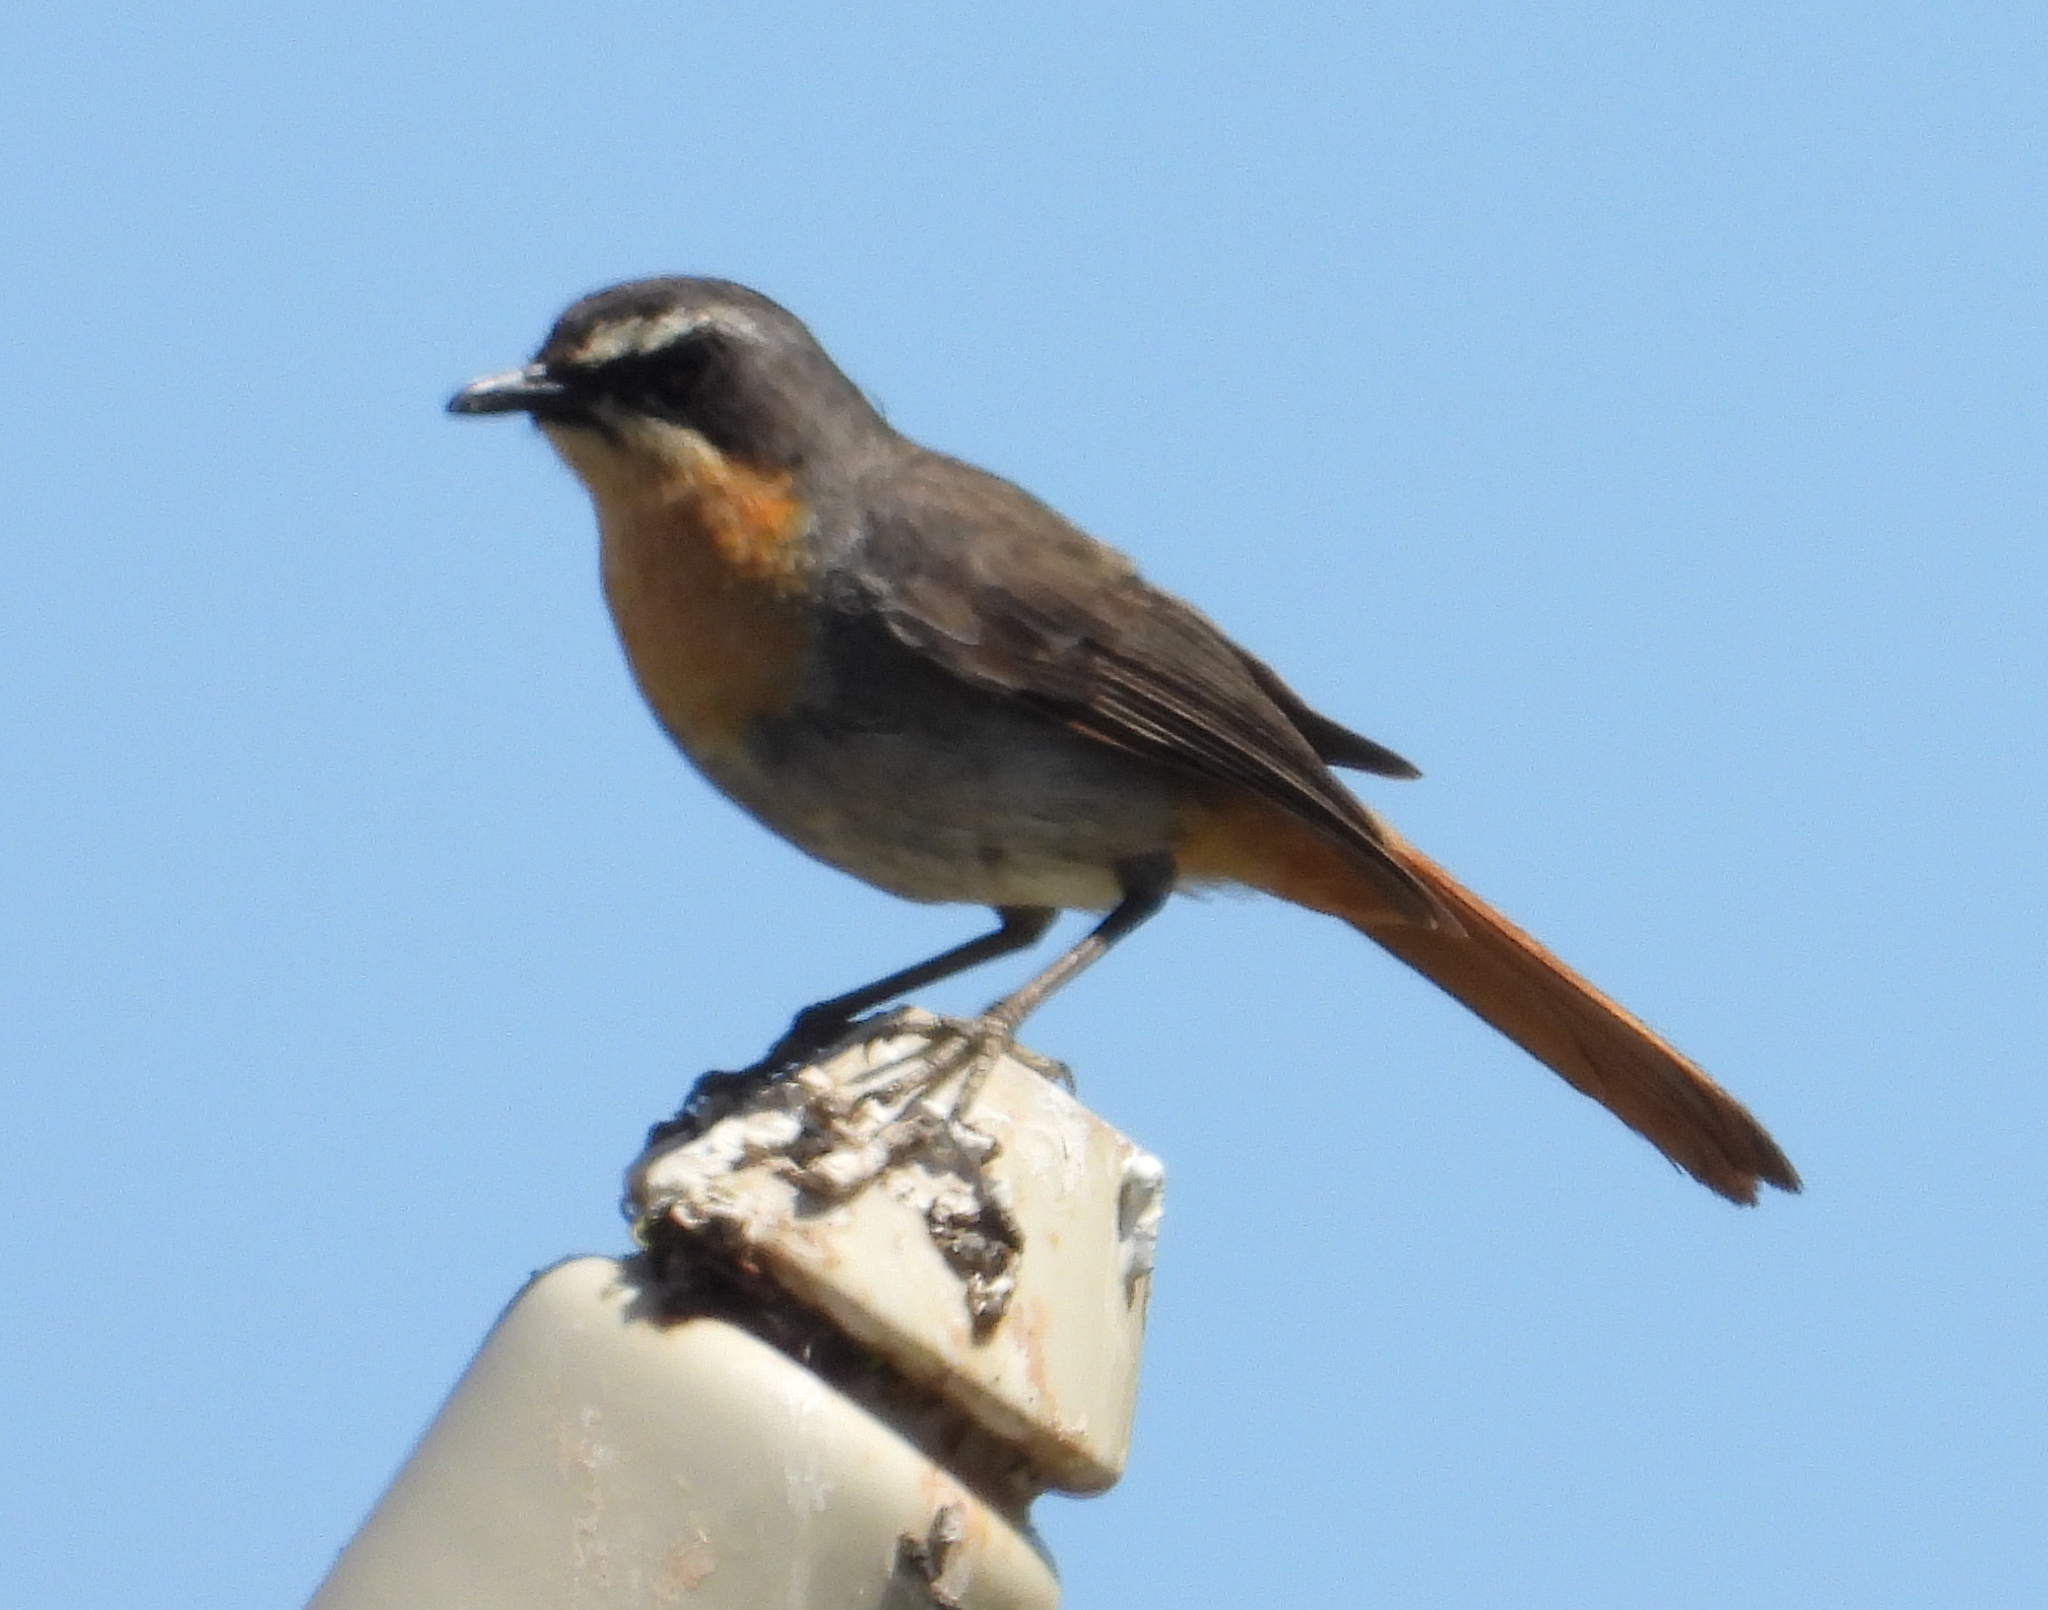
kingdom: Animalia
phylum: Chordata
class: Aves
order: Passeriformes
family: Muscicapidae
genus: Cossypha
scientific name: Cossypha caffra
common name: Cape robin-chat
